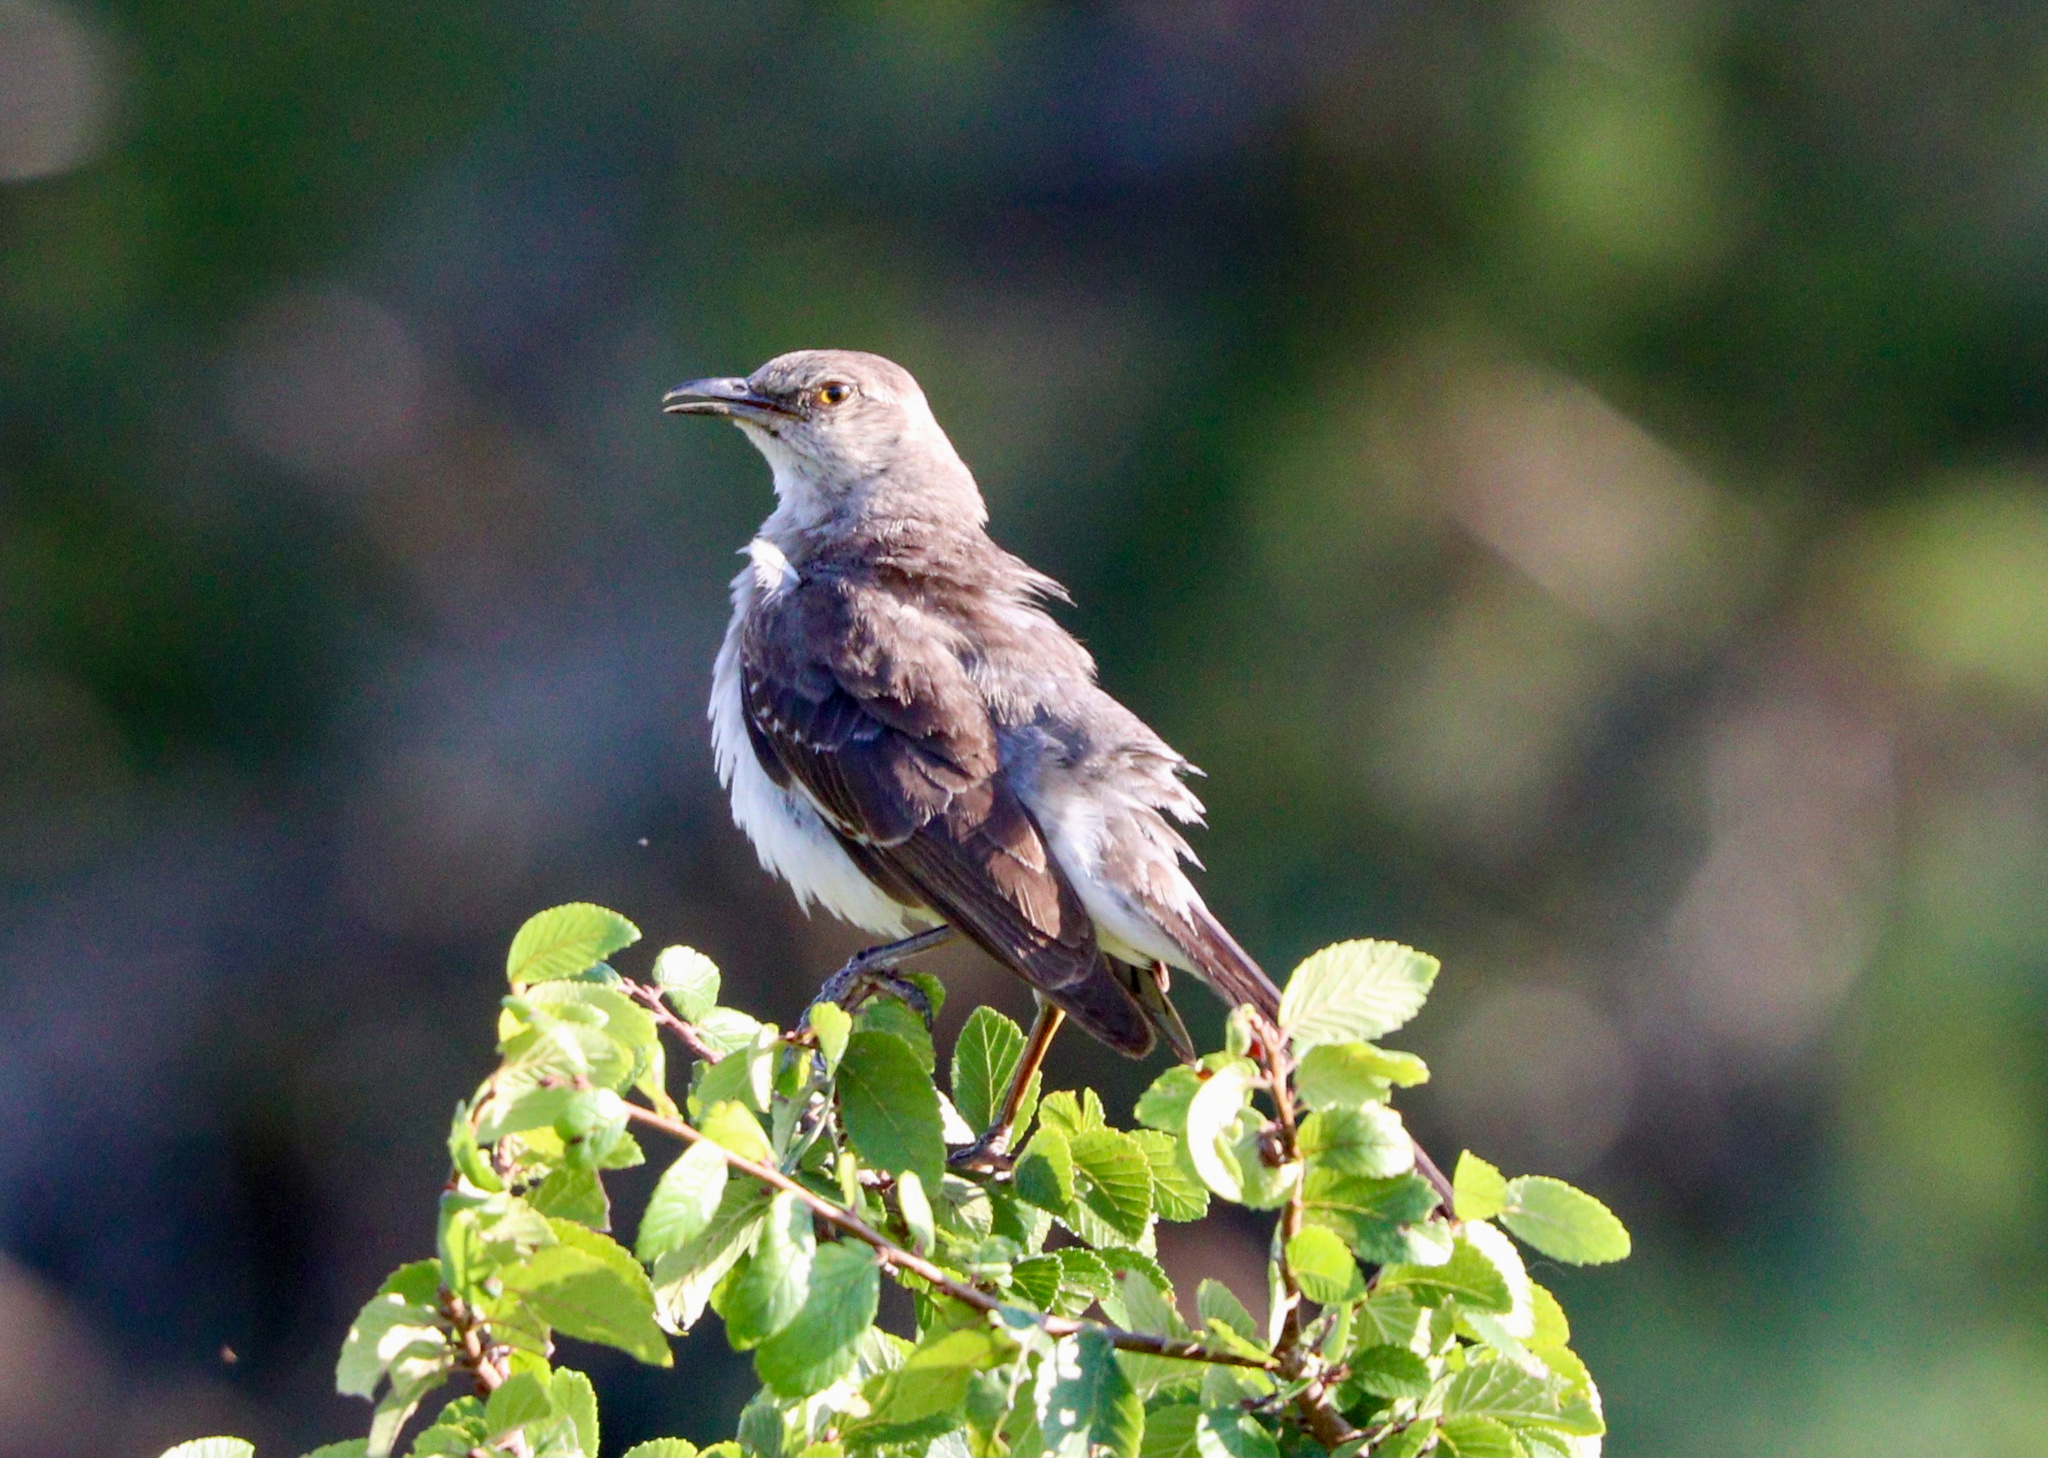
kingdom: Animalia
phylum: Chordata
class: Aves
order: Passeriformes
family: Mimidae
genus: Mimus
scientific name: Mimus polyglottos
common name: Northern mockingbird
